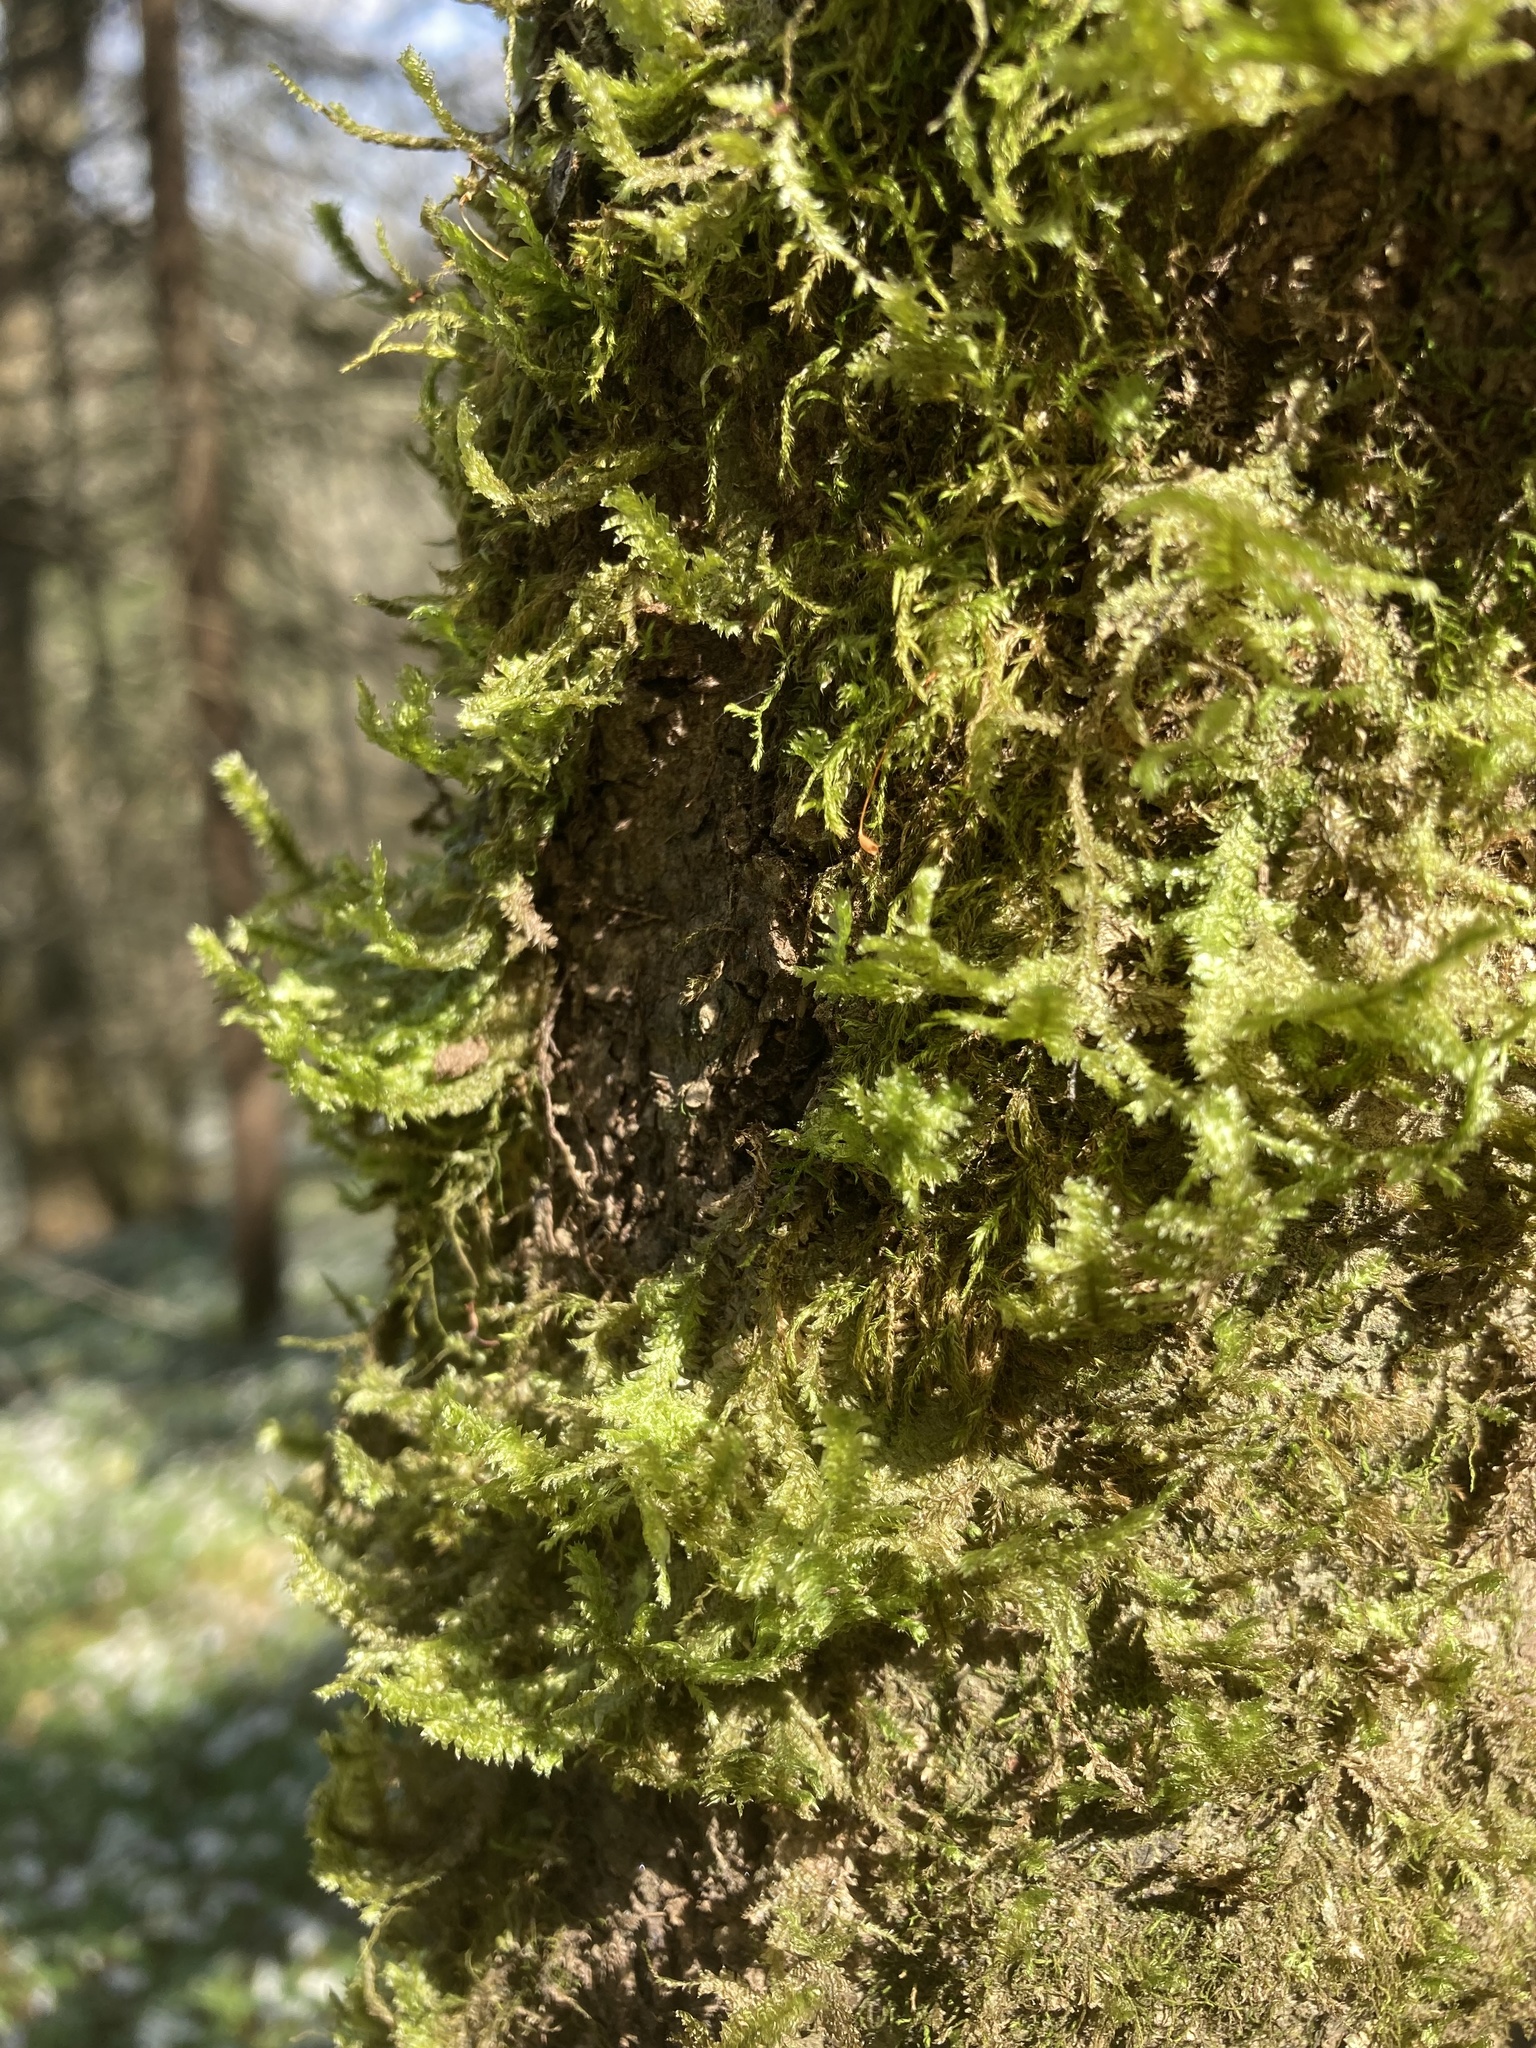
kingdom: Plantae
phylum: Bryophyta
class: Bryopsida
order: Hypnales
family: Neckeraceae
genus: Neckera
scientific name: Neckera pennata
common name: Feathery neckera
